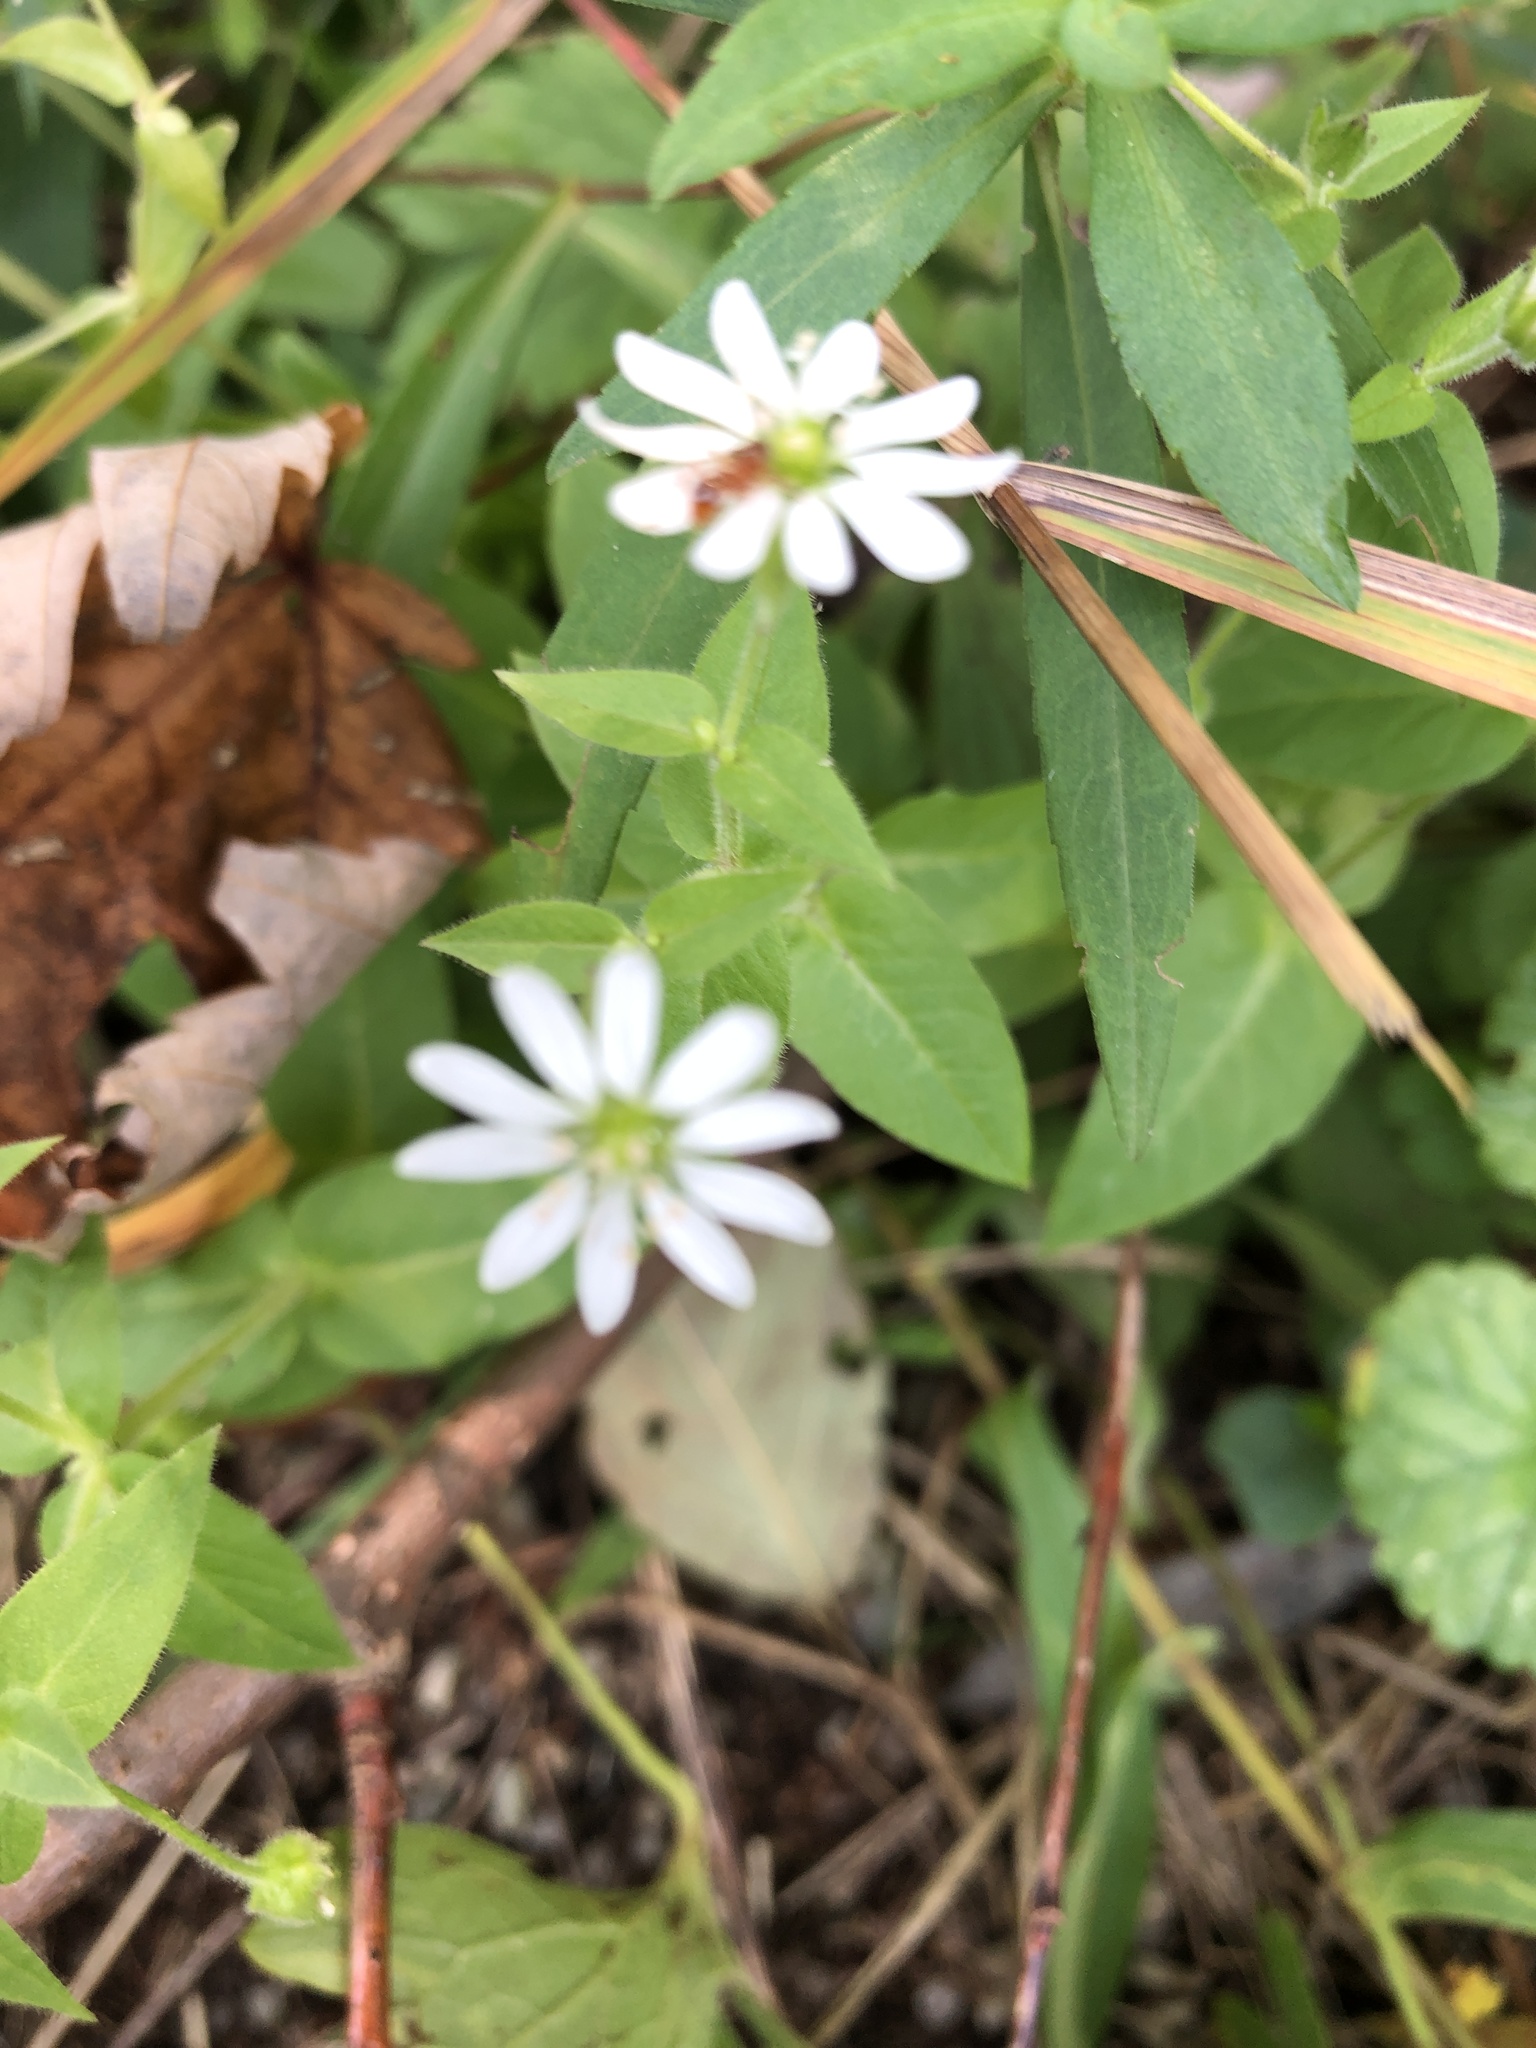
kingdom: Plantae
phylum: Tracheophyta
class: Magnoliopsida
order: Caryophyllales
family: Caryophyllaceae
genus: Stellaria
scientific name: Stellaria aquatica
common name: Water chickweed
